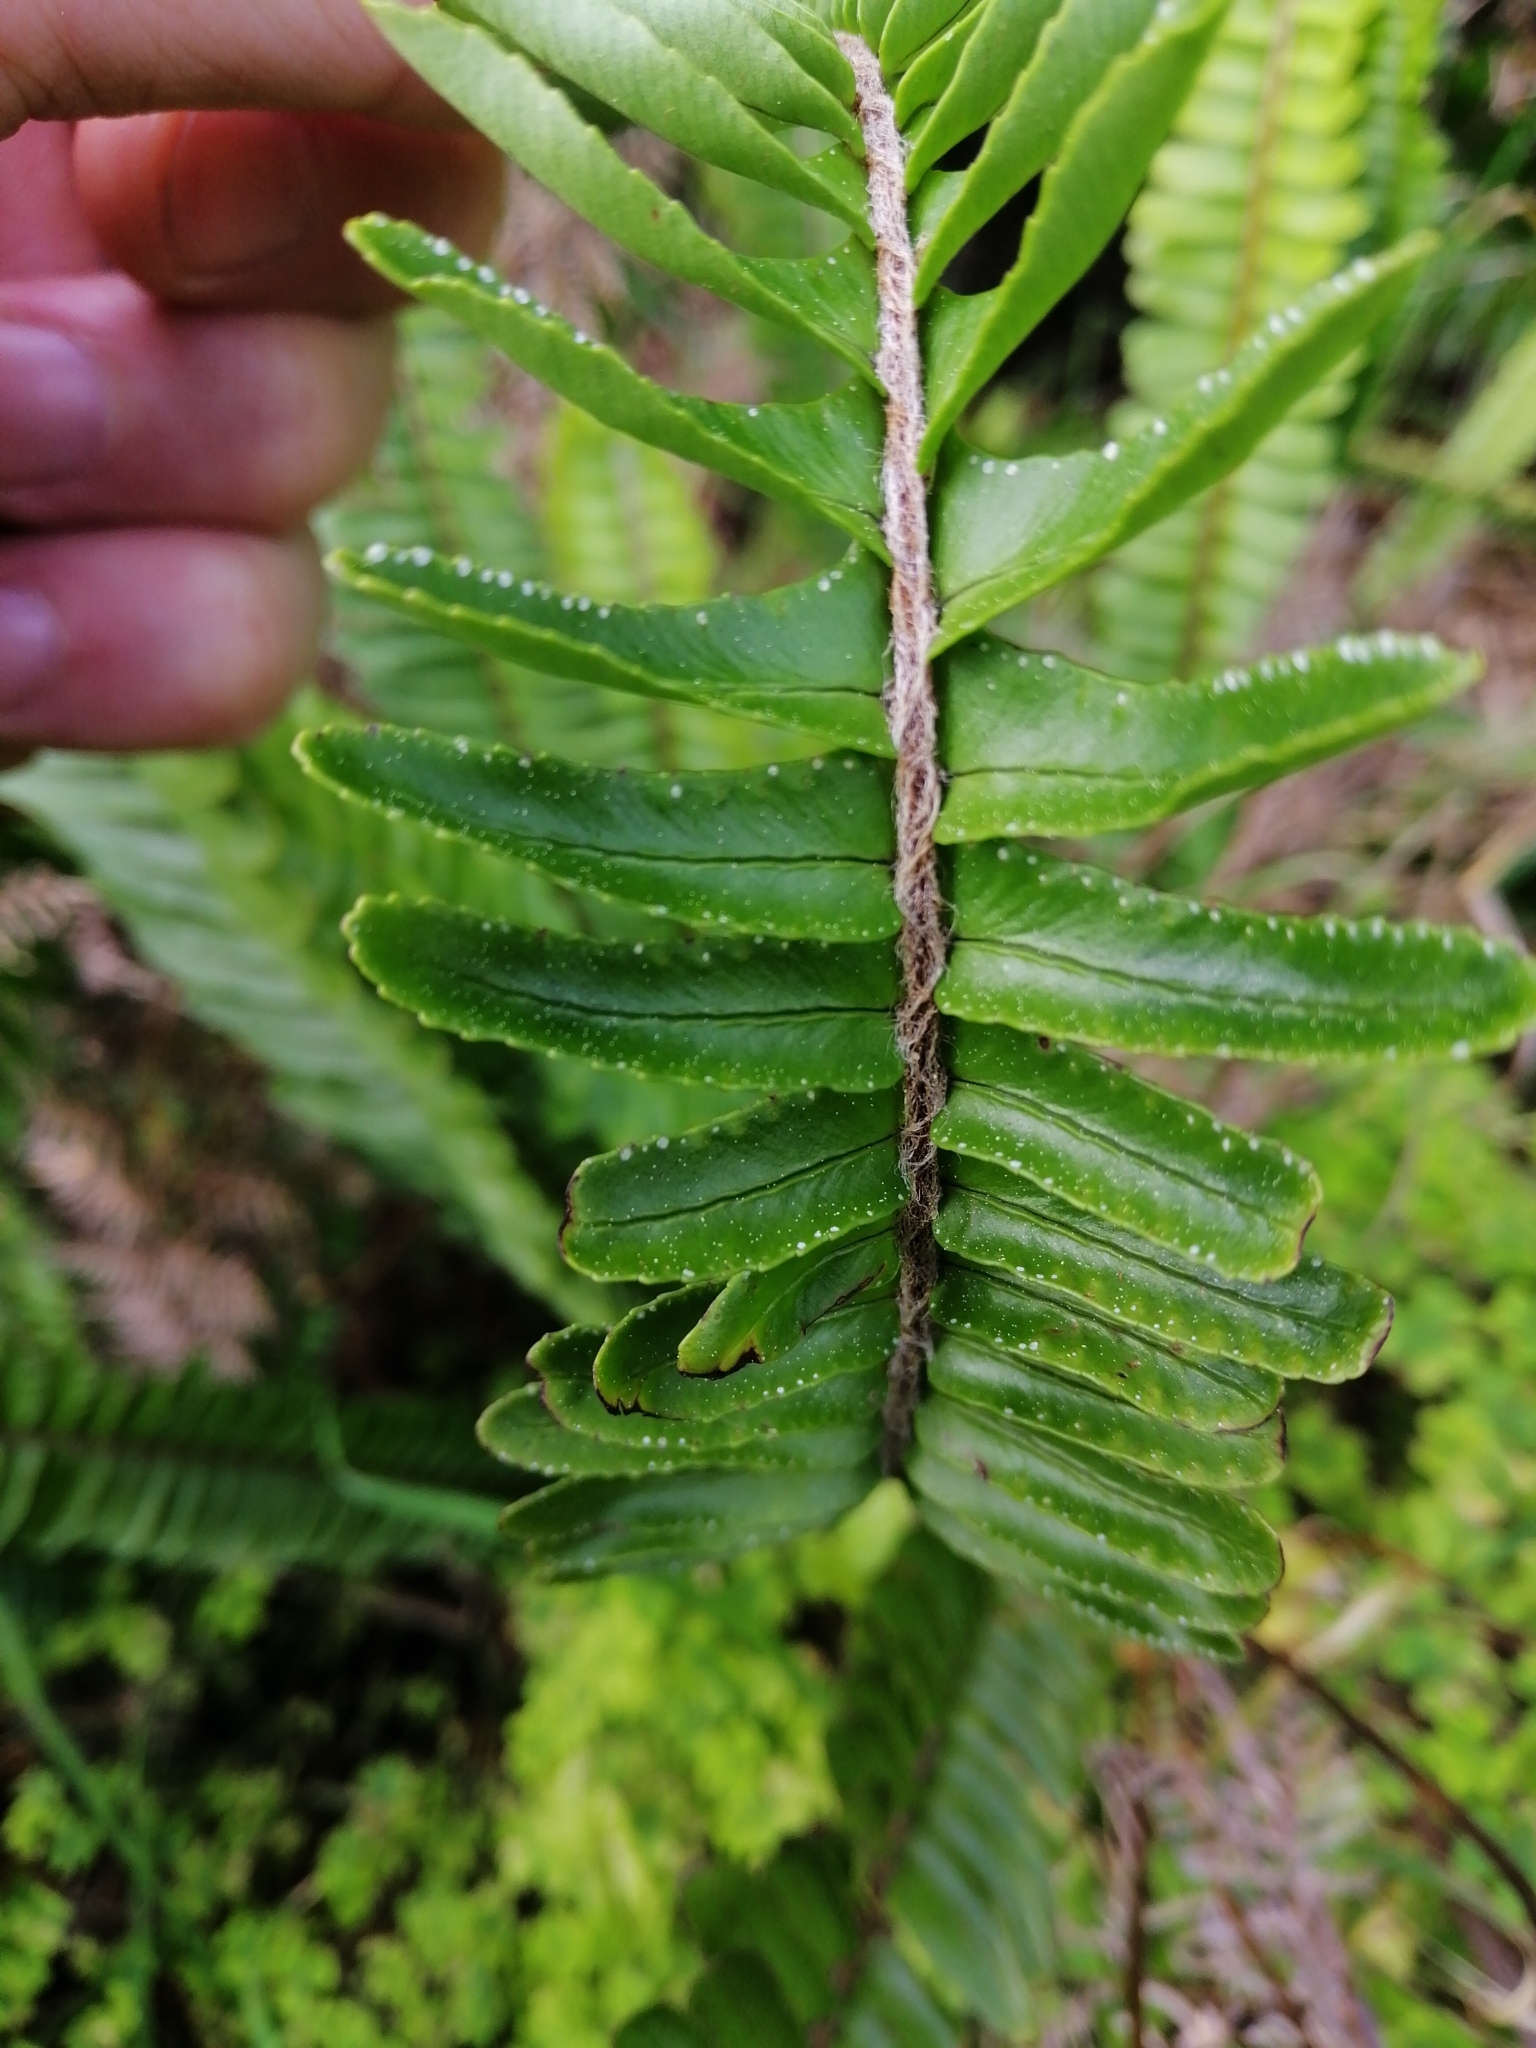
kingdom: Plantae
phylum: Tracheophyta
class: Polypodiopsida
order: Polypodiales
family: Nephrolepidaceae
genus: Nephrolepis
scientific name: Nephrolepis cordifolia
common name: Narrow swordfern
